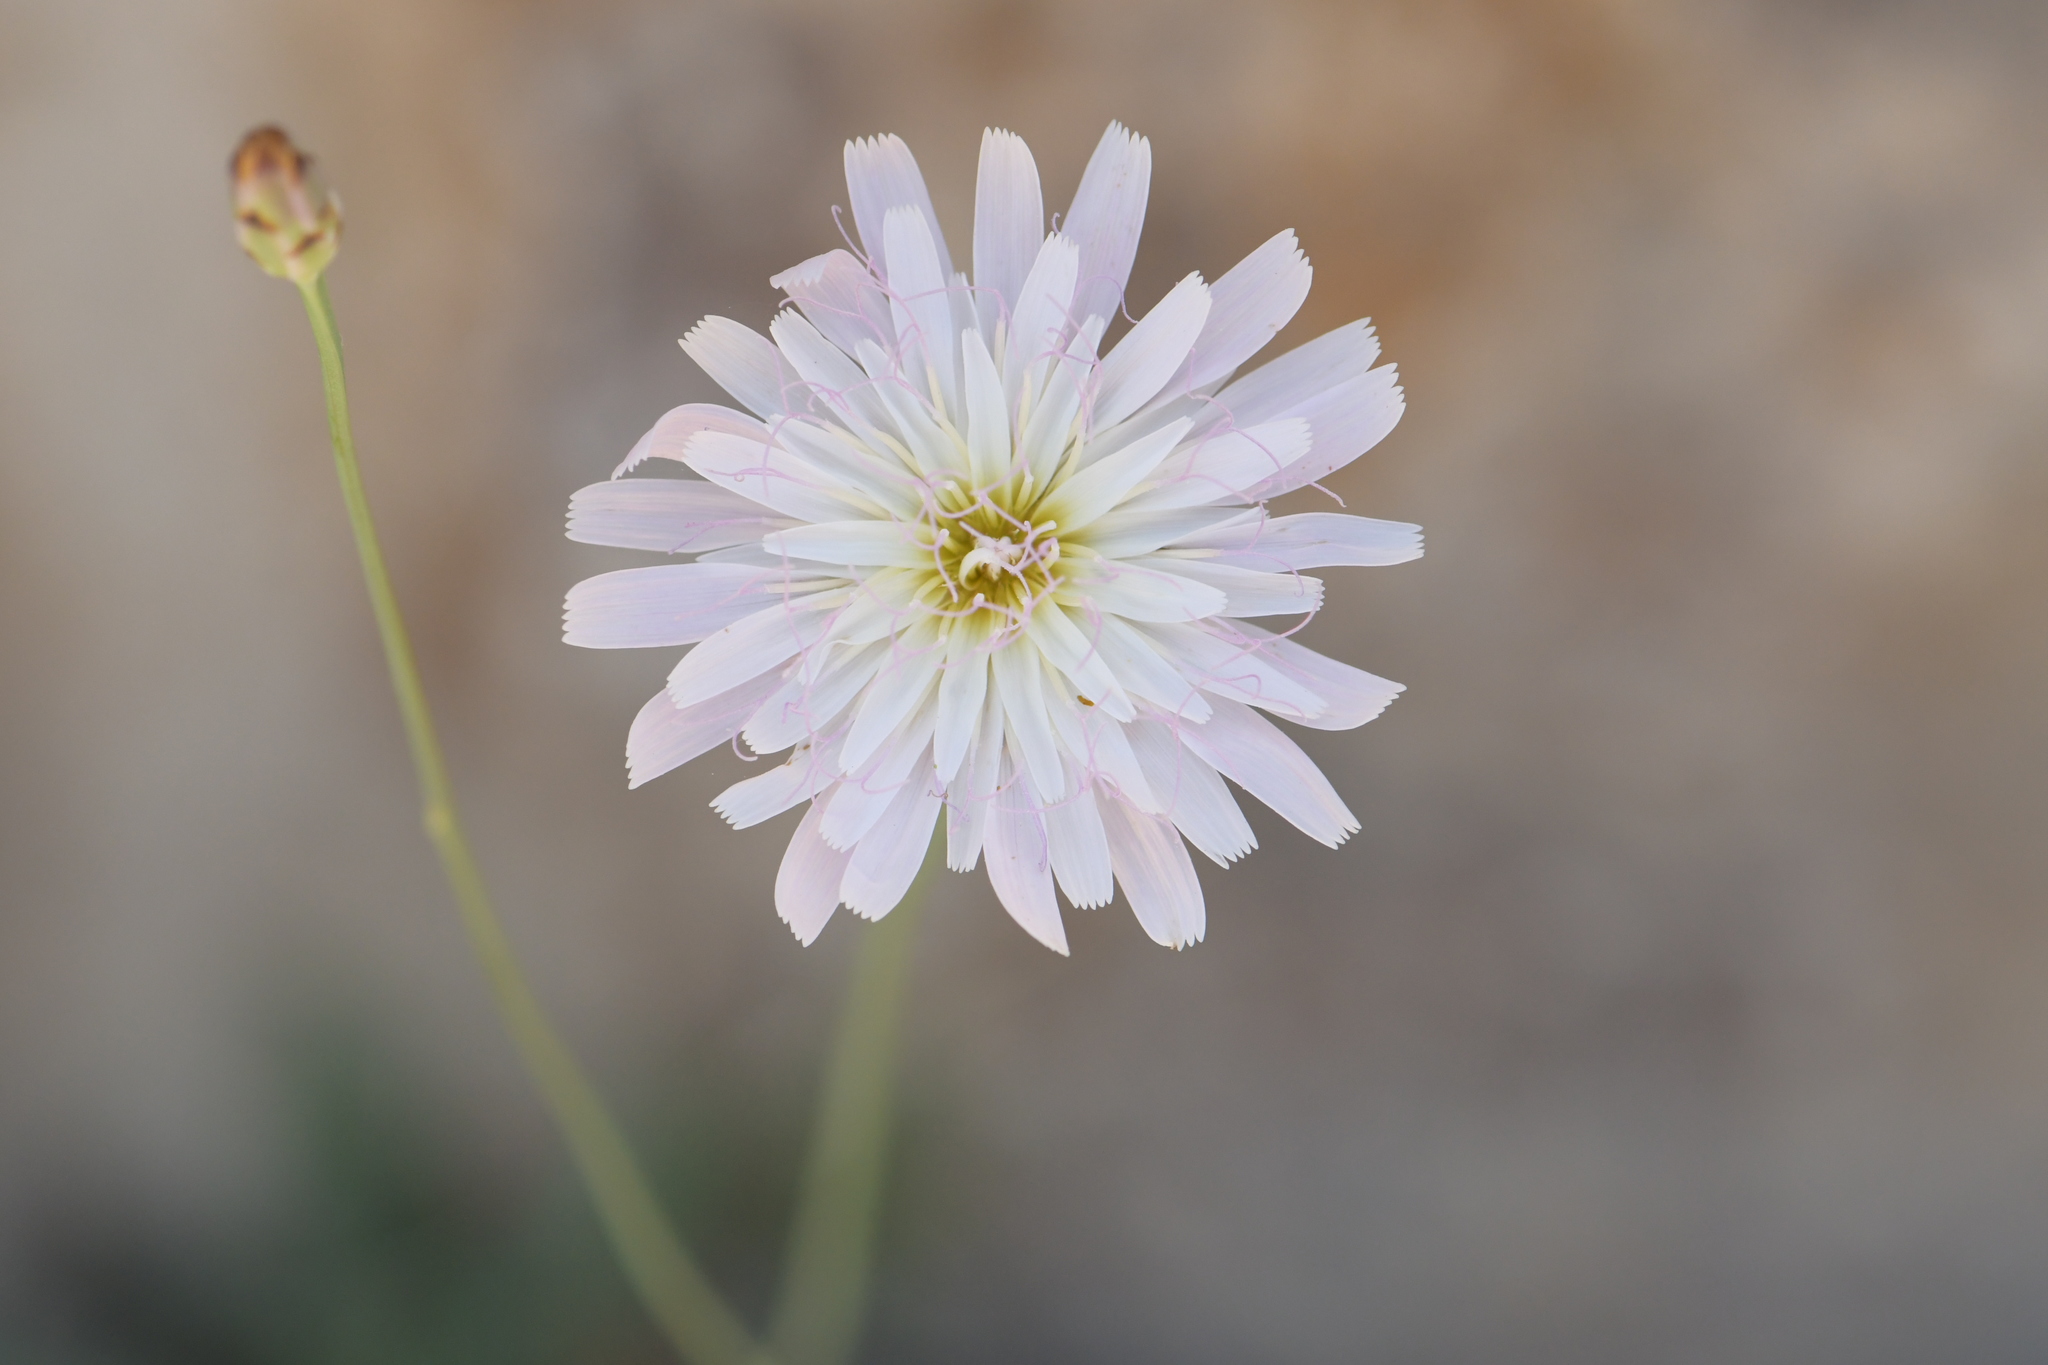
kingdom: Plantae
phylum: Tracheophyta
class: Magnoliopsida
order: Asterales
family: Asteraceae
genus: Pinaropappus
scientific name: Pinaropappus roseus
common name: Rock-lettuce
